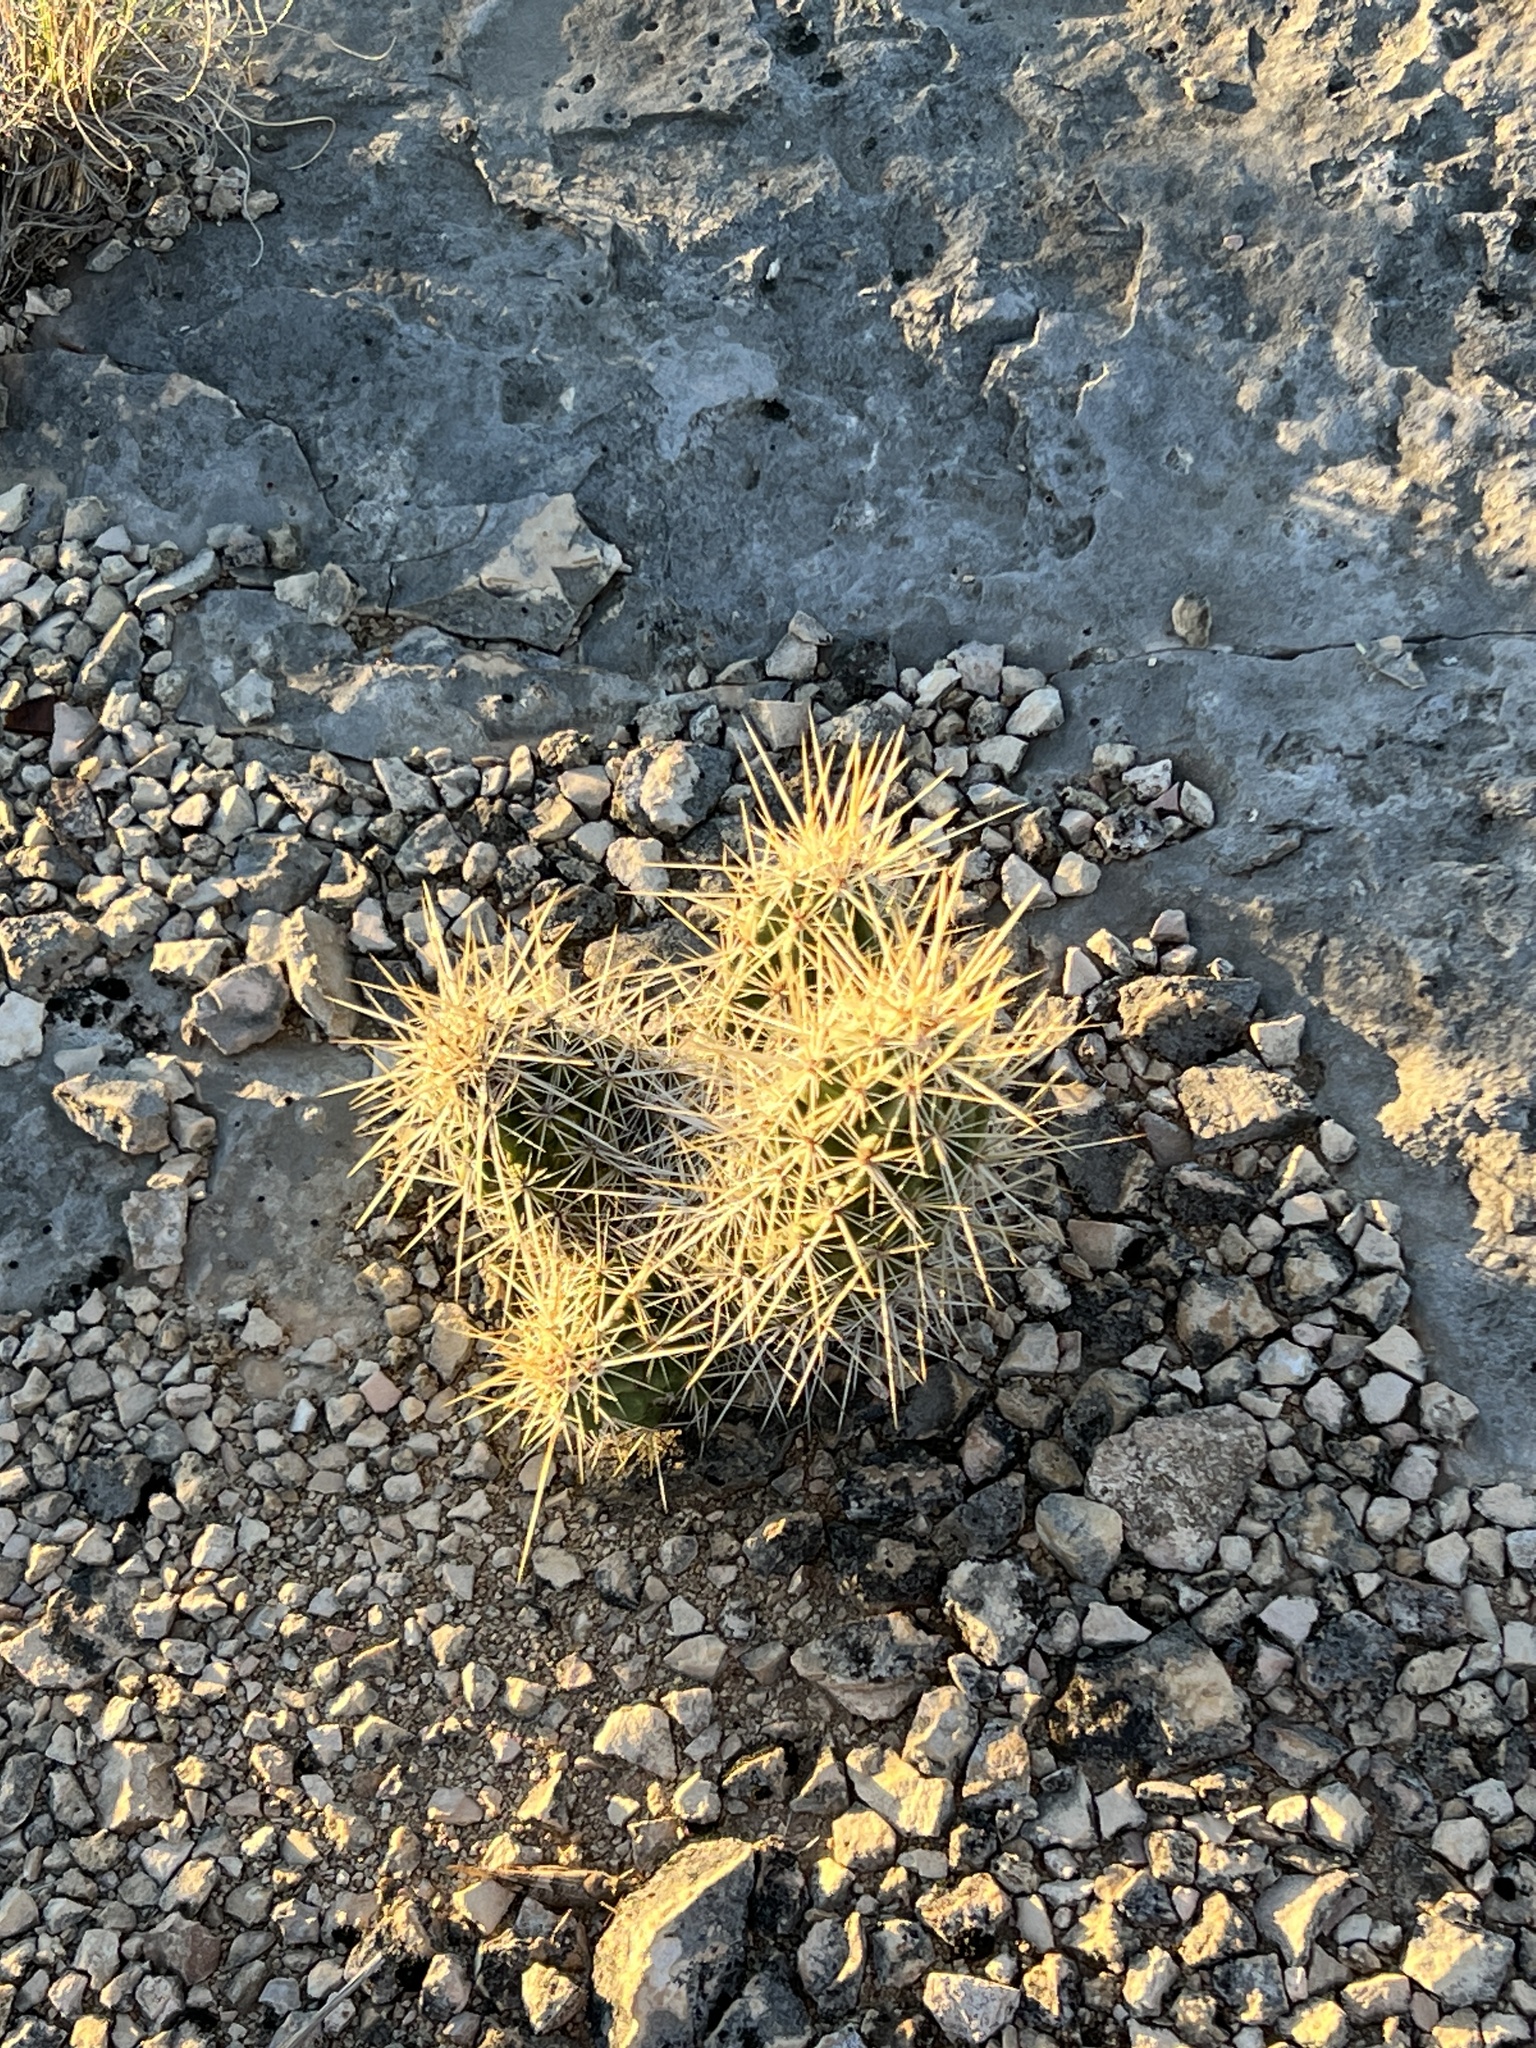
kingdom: Plantae
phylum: Tracheophyta
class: Magnoliopsida
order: Caryophyllales
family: Cactaceae
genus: Echinocereus
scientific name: Echinocereus enneacanthus
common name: Pitaya
